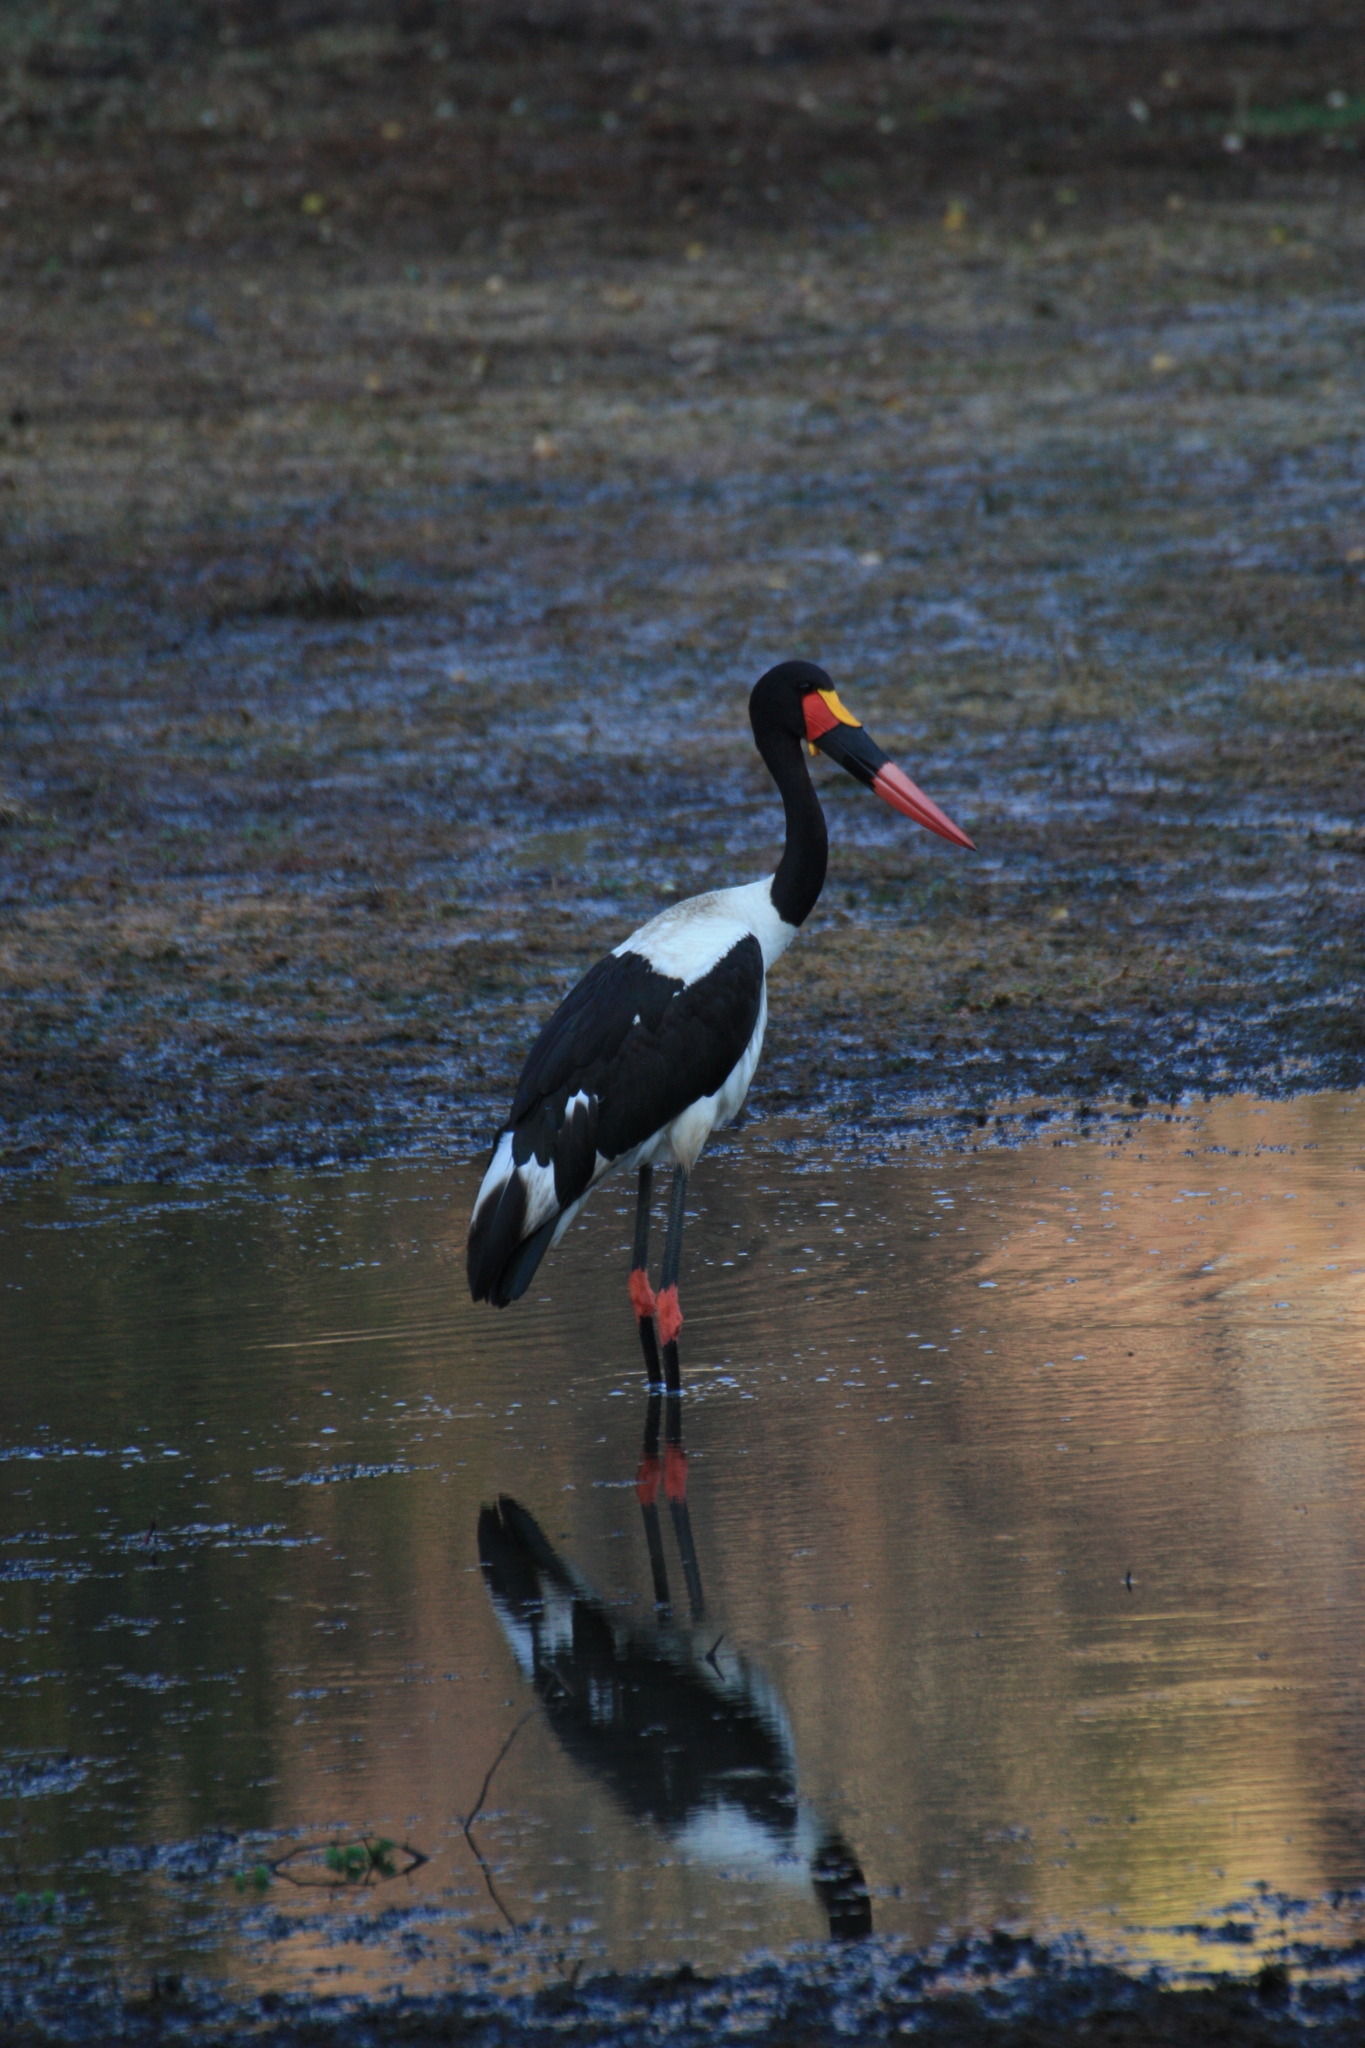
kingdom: Animalia
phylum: Chordata
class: Aves
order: Ciconiiformes
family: Ciconiidae
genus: Ephippiorhynchus
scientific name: Ephippiorhynchus senegalensis
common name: Saddle-billed stork
